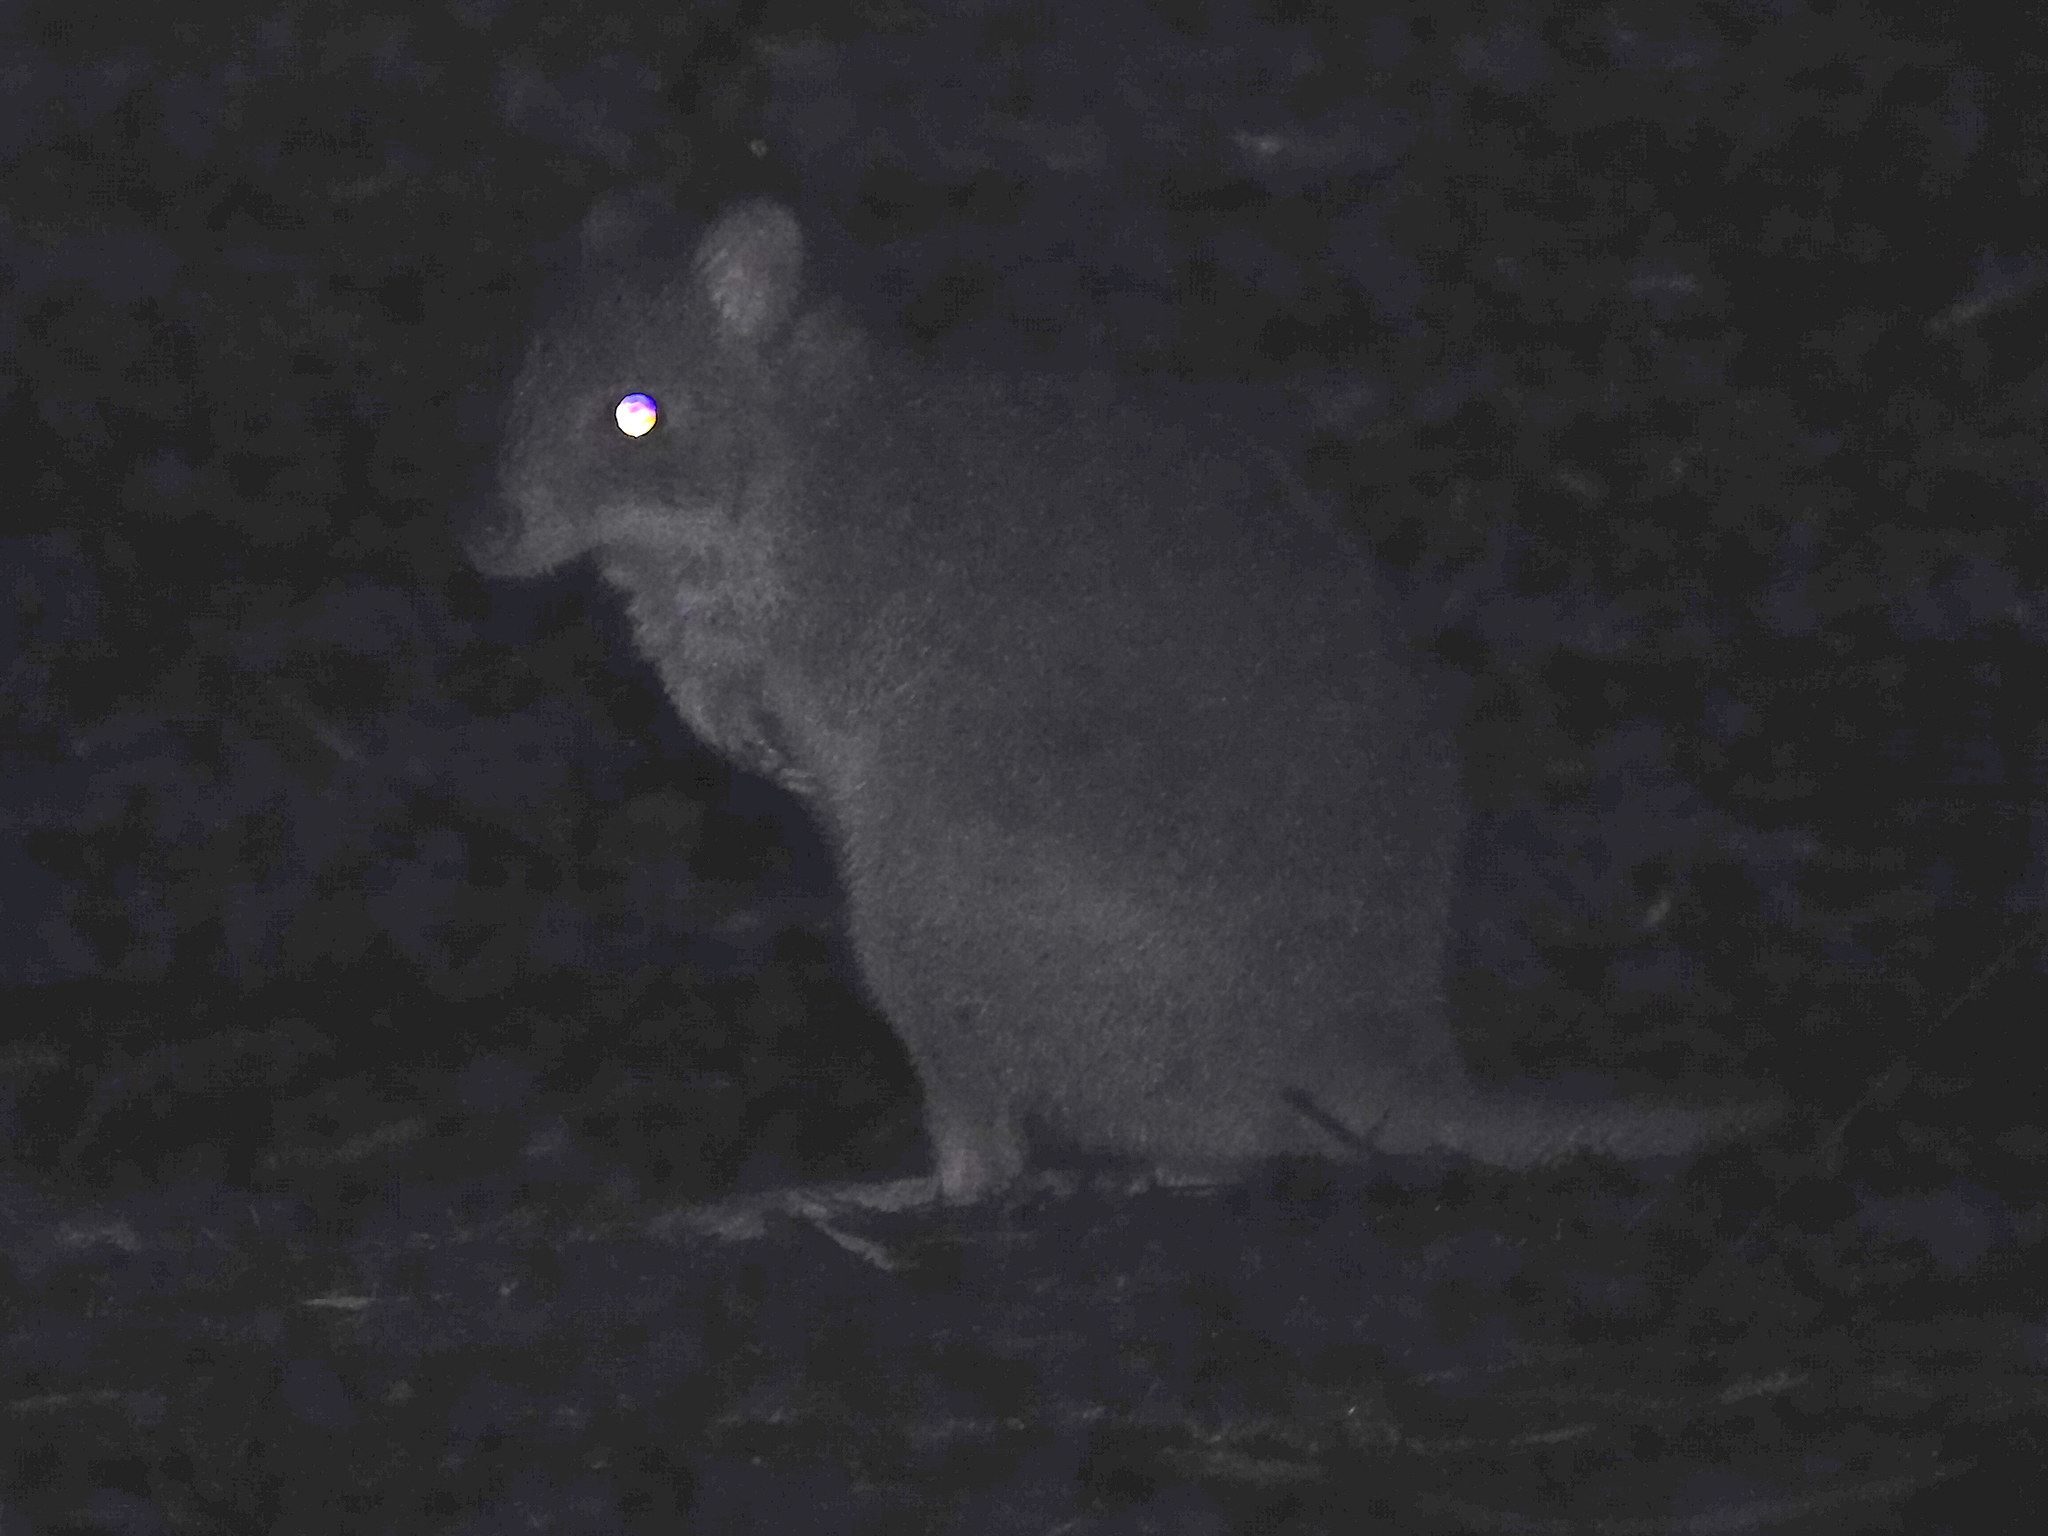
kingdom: Animalia
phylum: Chordata
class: Mammalia
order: Diprotodontia
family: Potoroidae
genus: Bettongia
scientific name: Bettongia gaimardi
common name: Eastern bettong
